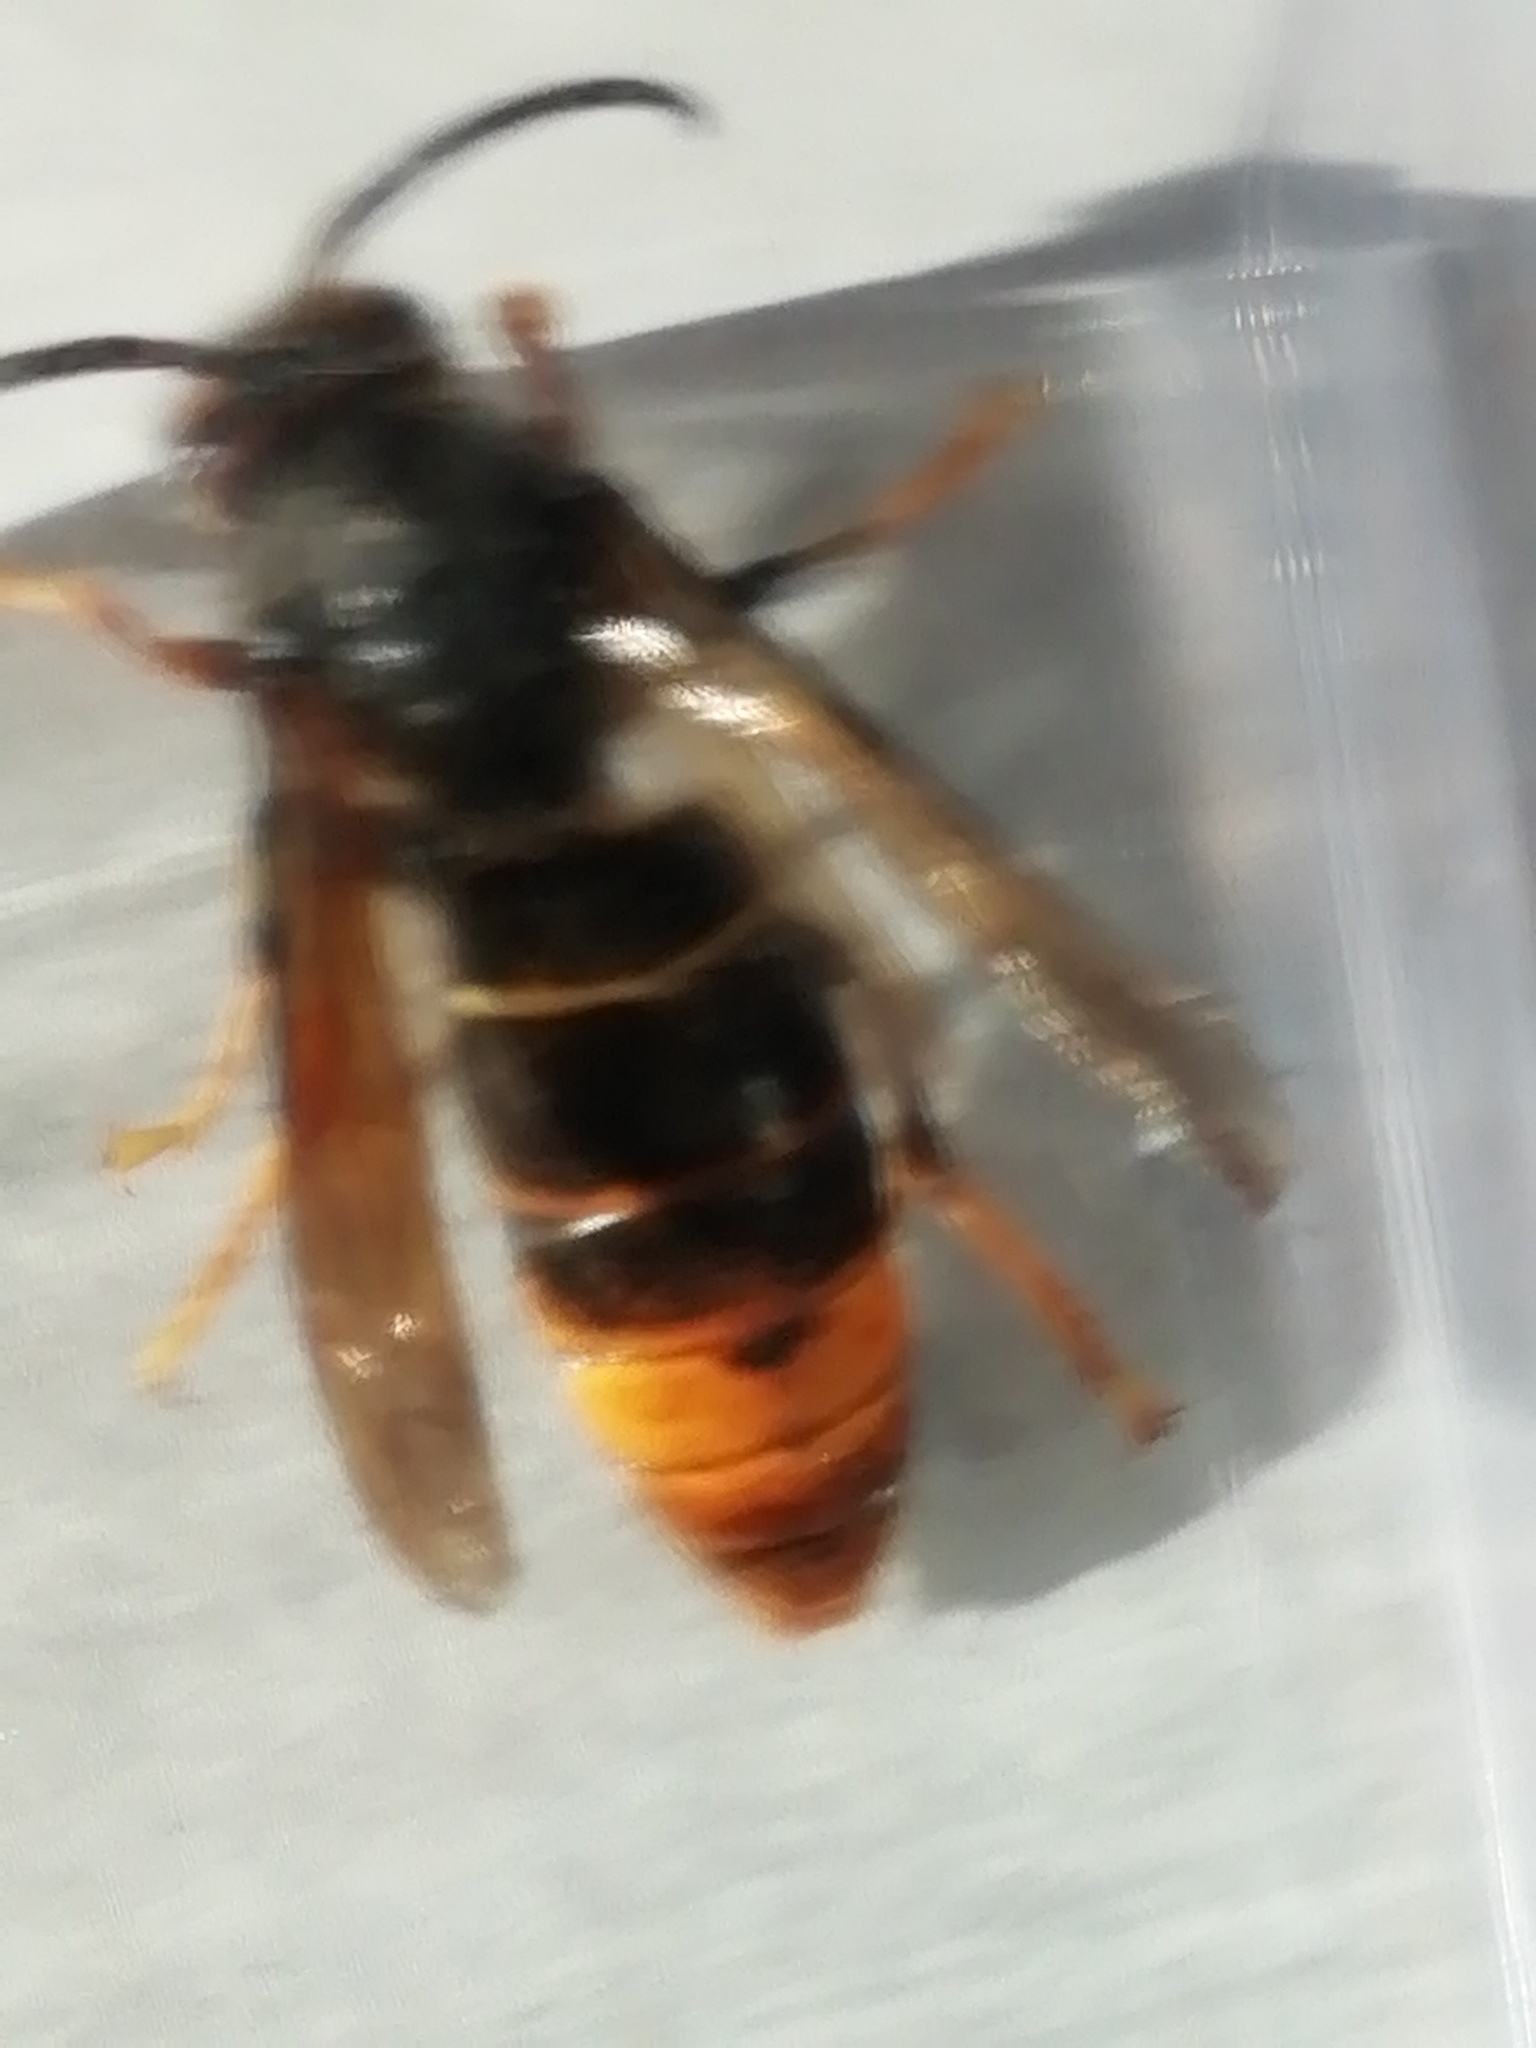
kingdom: Animalia
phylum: Arthropoda
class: Insecta
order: Hymenoptera
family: Vespidae
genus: Vespa
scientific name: Vespa velutina
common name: Asian hornet
